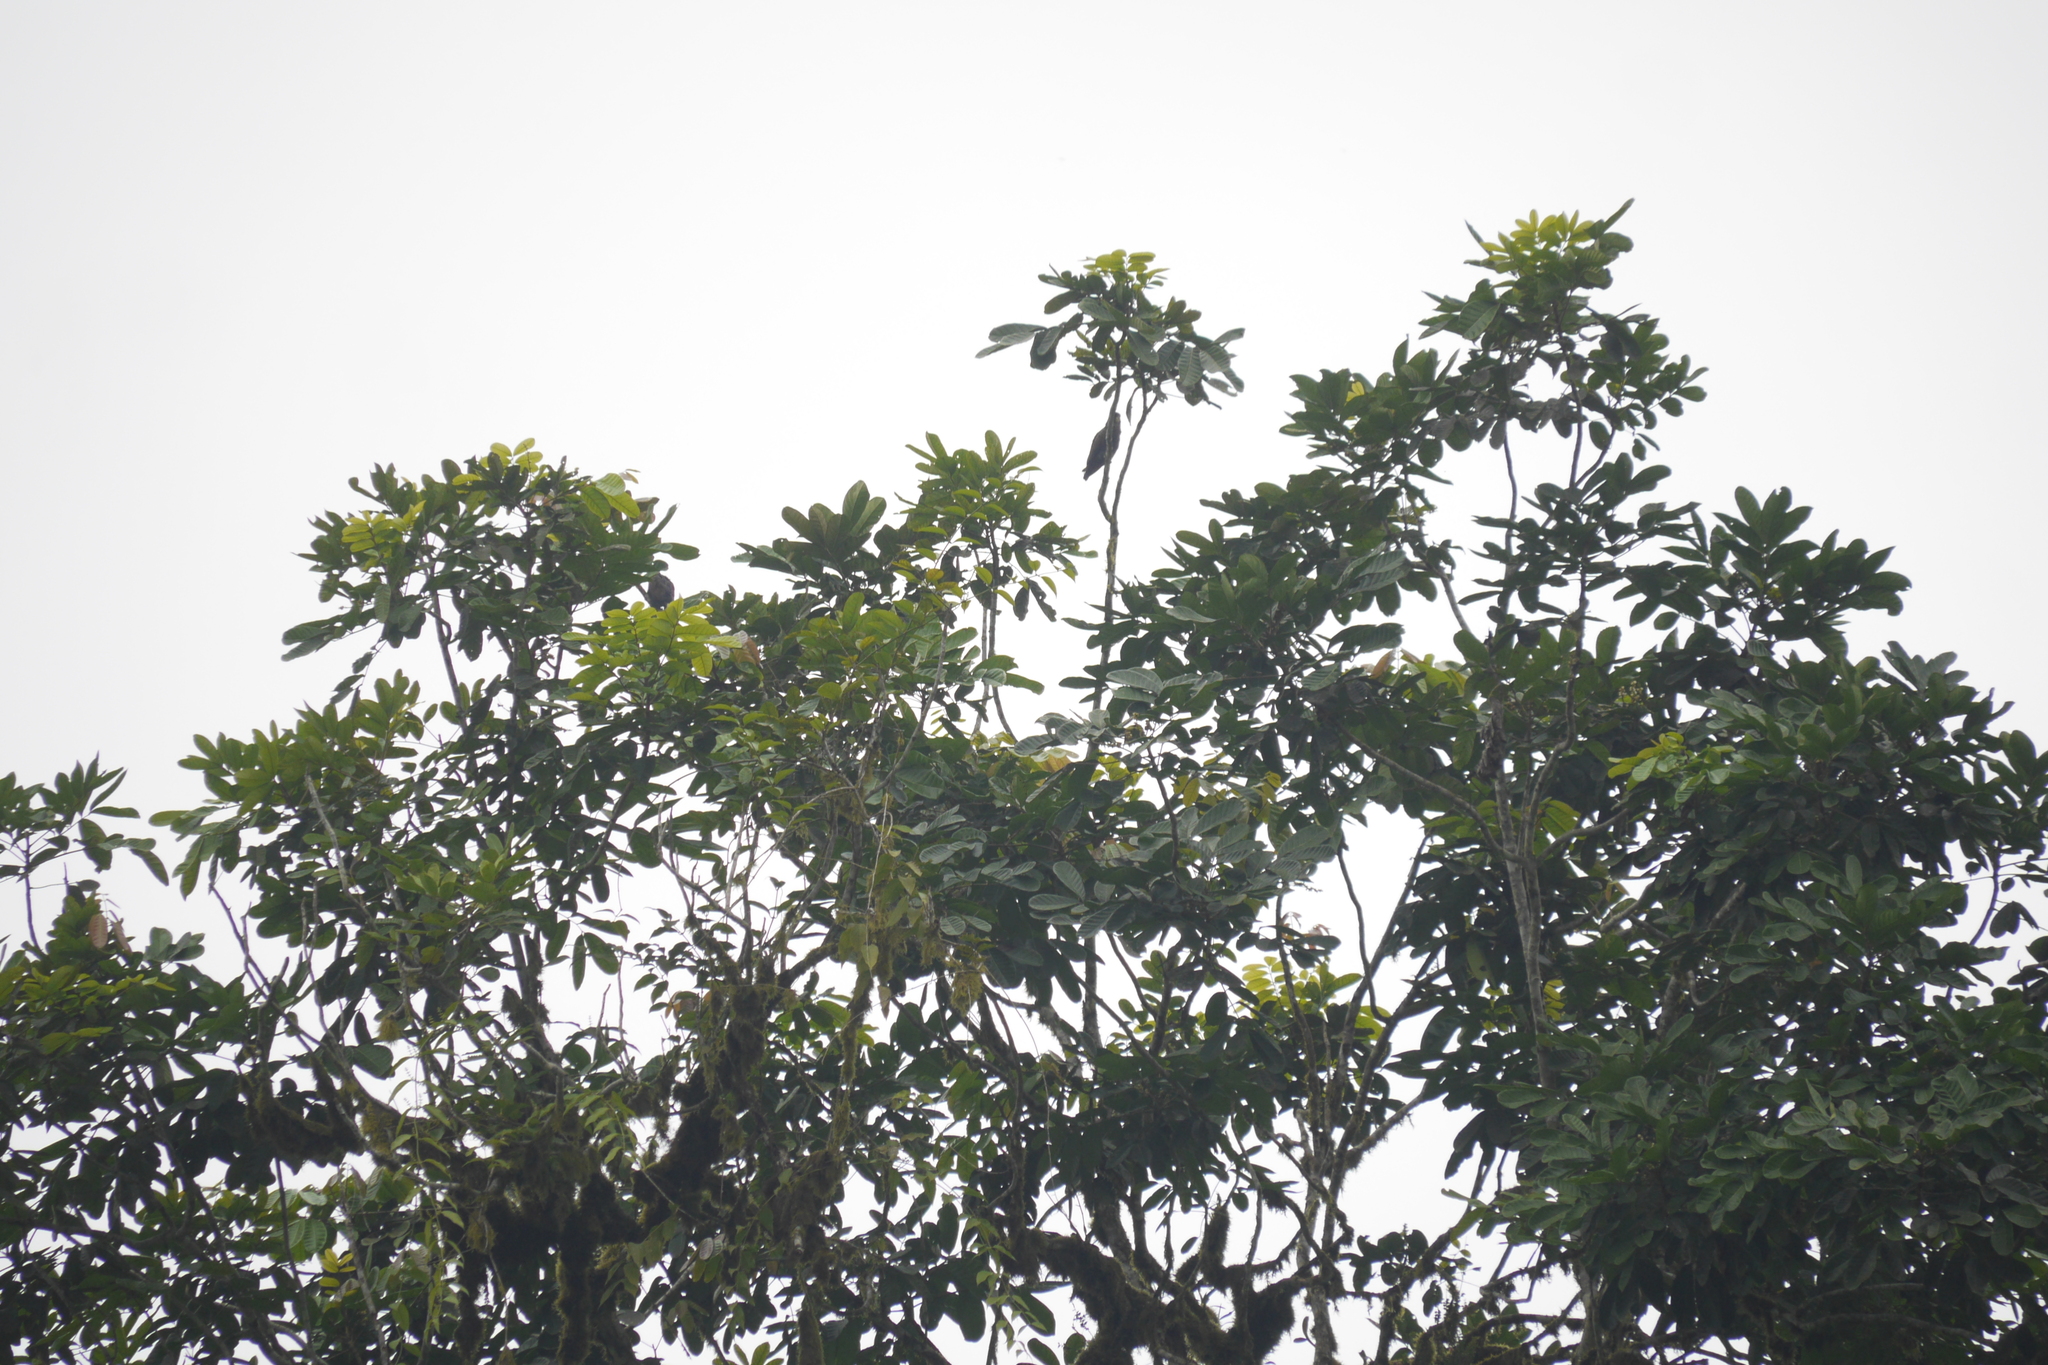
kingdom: Animalia
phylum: Chordata
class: Aves
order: Psittaciformes
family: Psittacidae
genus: Pionus
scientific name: Pionus chalcopterus
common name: Bronze-winged parrot
